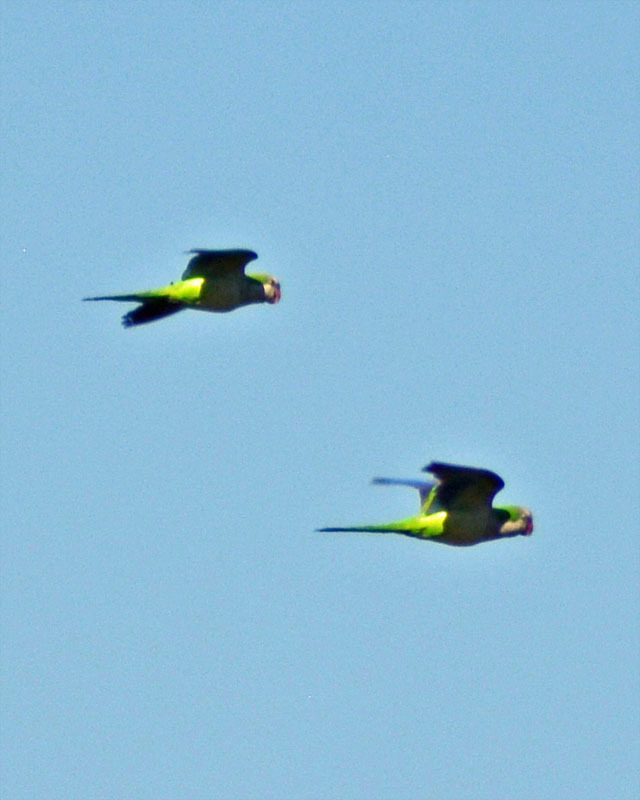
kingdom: Animalia
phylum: Chordata
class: Aves
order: Psittaciformes
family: Psittacidae
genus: Myiopsitta
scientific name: Myiopsitta monachus
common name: Monk parakeet
